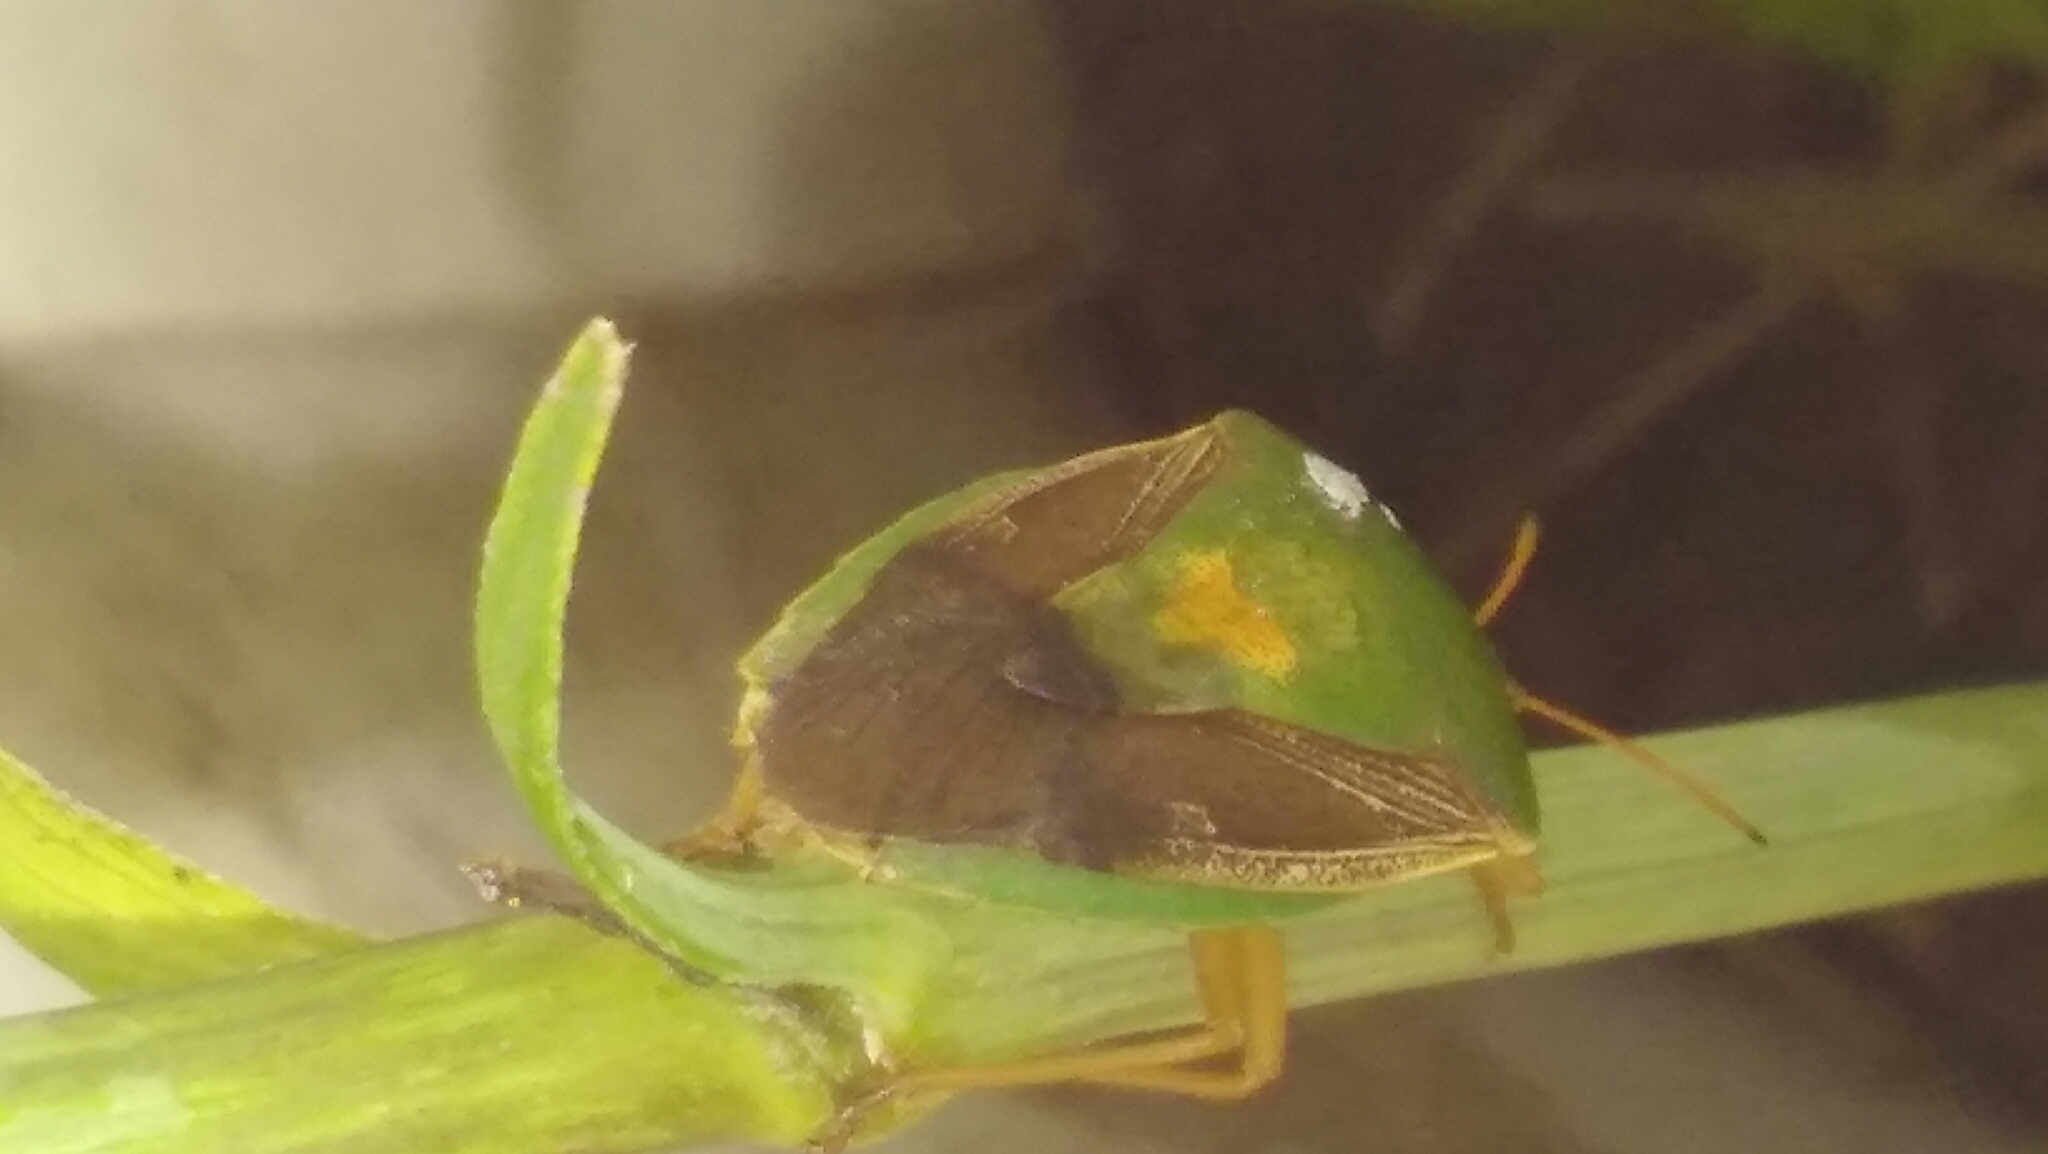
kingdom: Animalia
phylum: Arthropoda
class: Insecta
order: Hemiptera
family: Pentatomidae
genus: Edessa
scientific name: Edessa meditabunda
